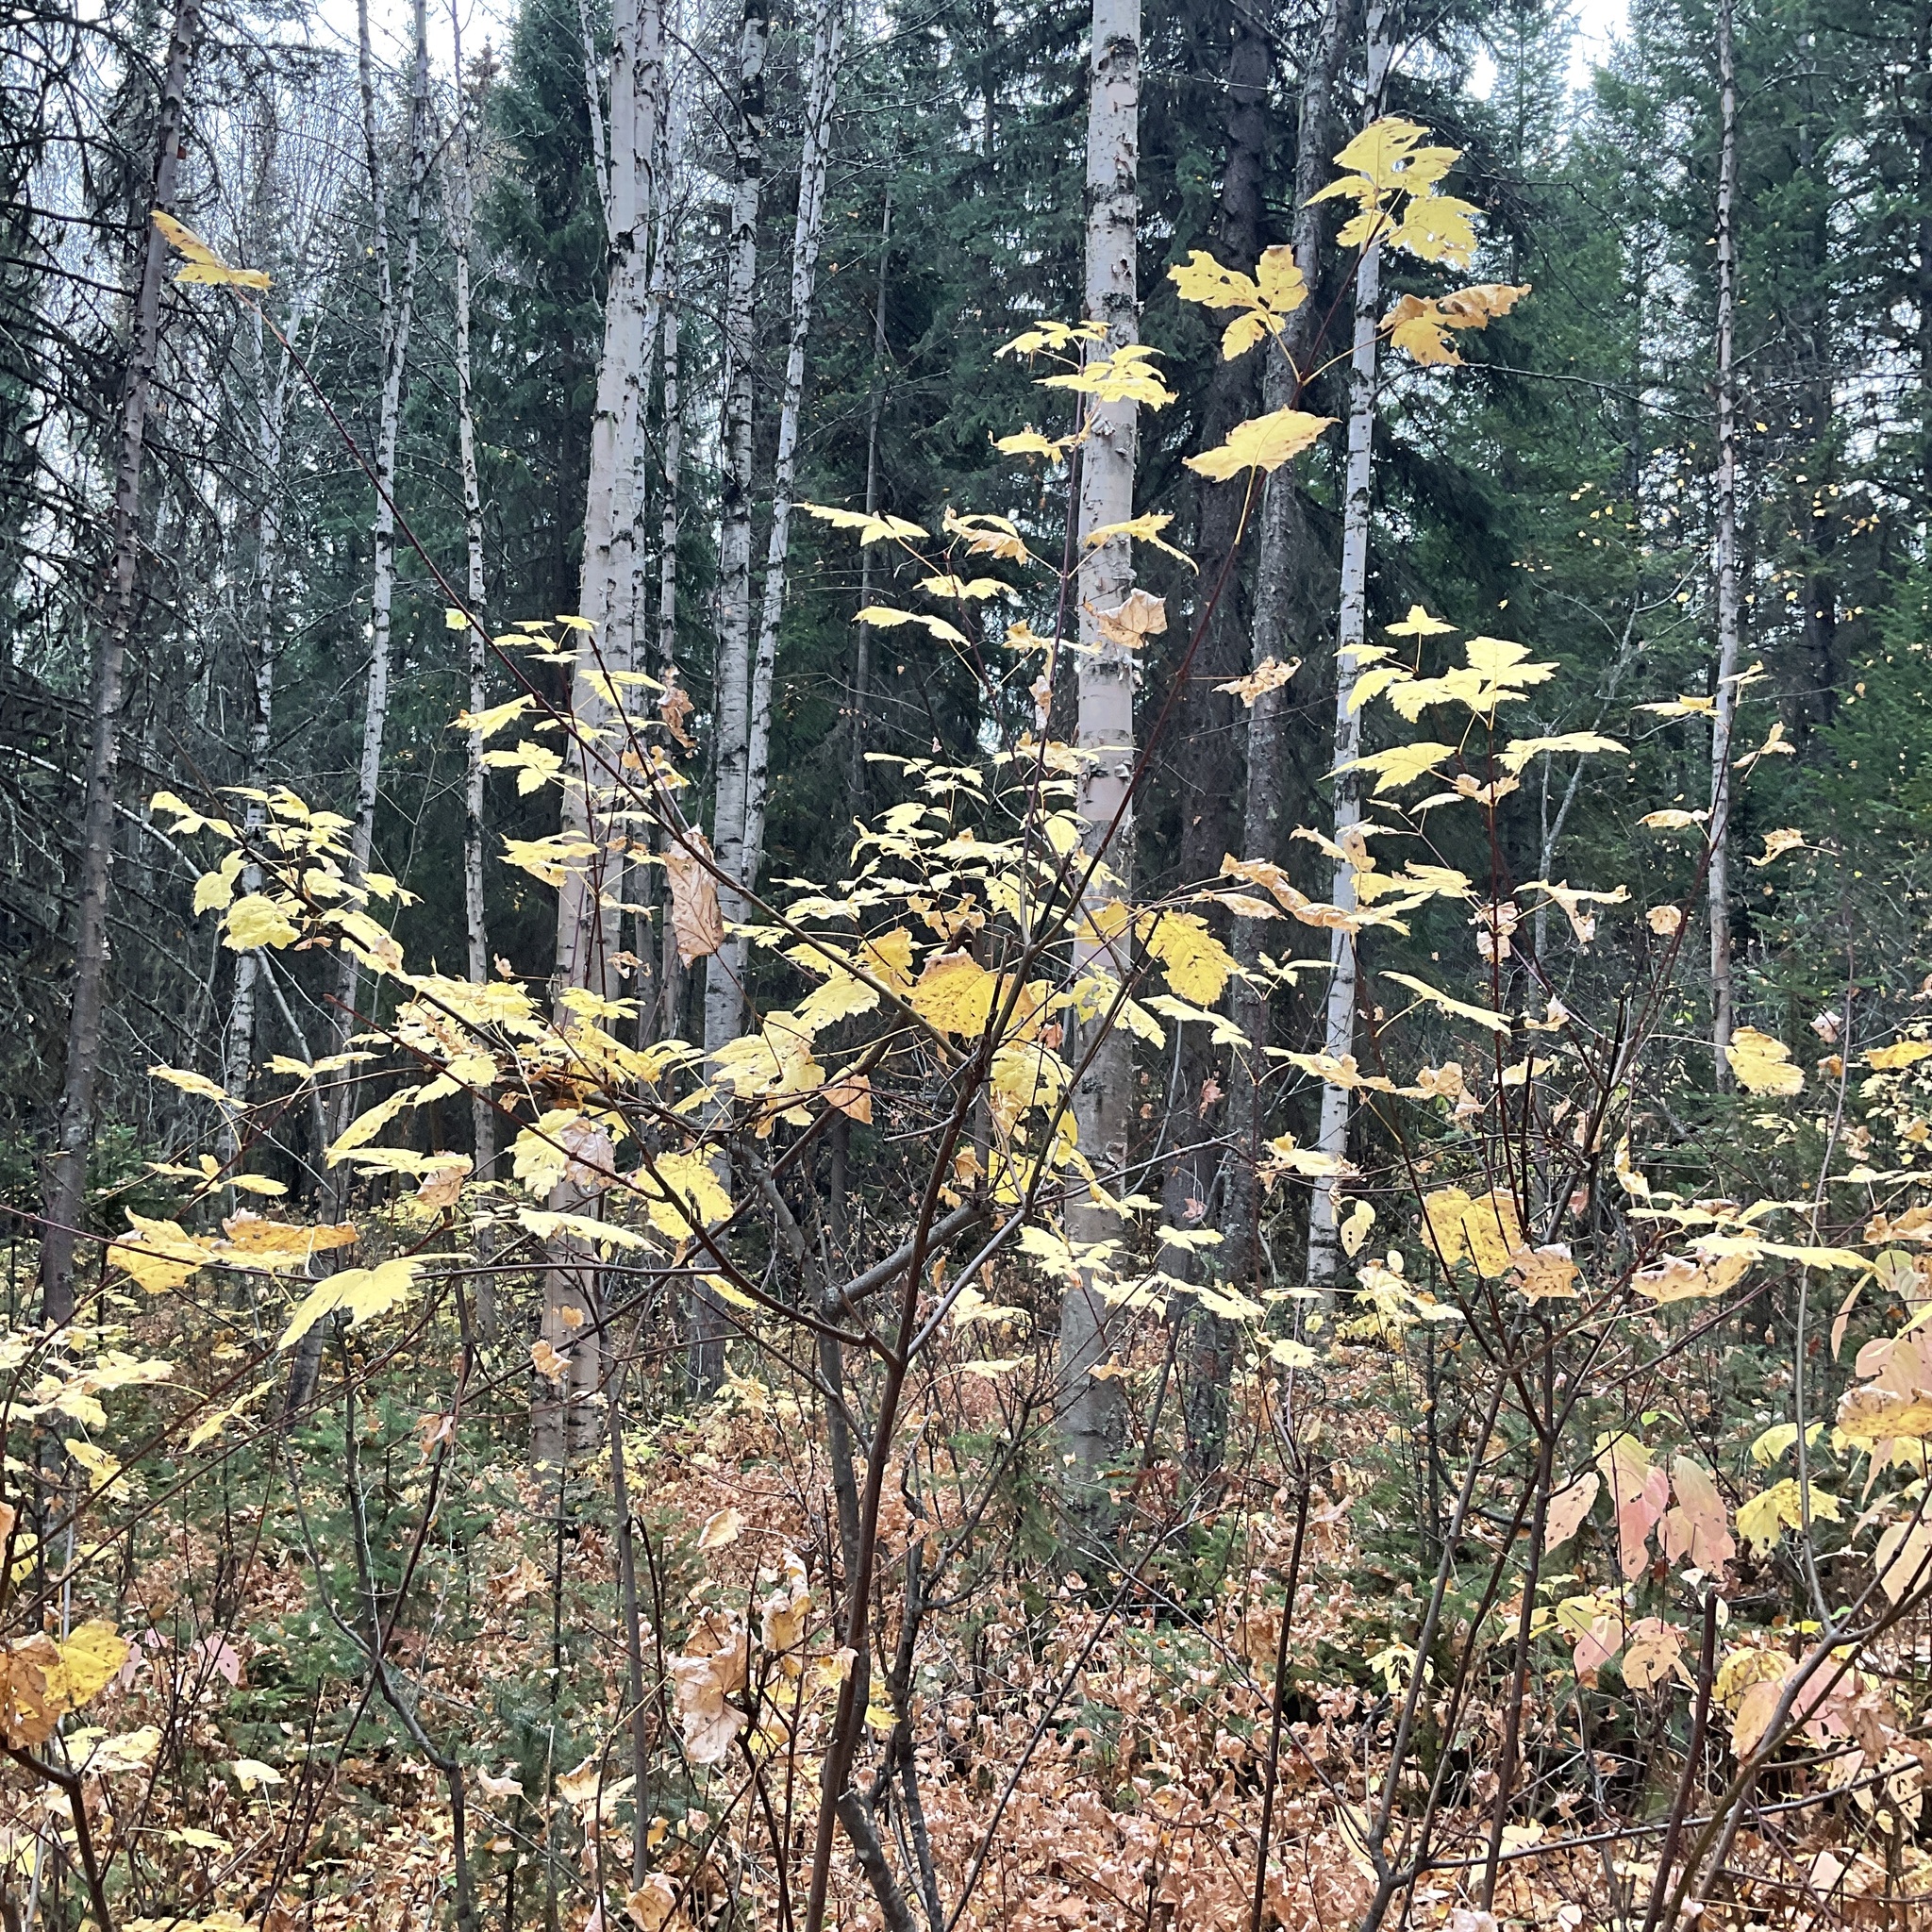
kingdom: Plantae
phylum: Tracheophyta
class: Magnoliopsida
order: Sapindales
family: Sapindaceae
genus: Acer
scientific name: Acer glabrum
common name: Rocky mountain maple
